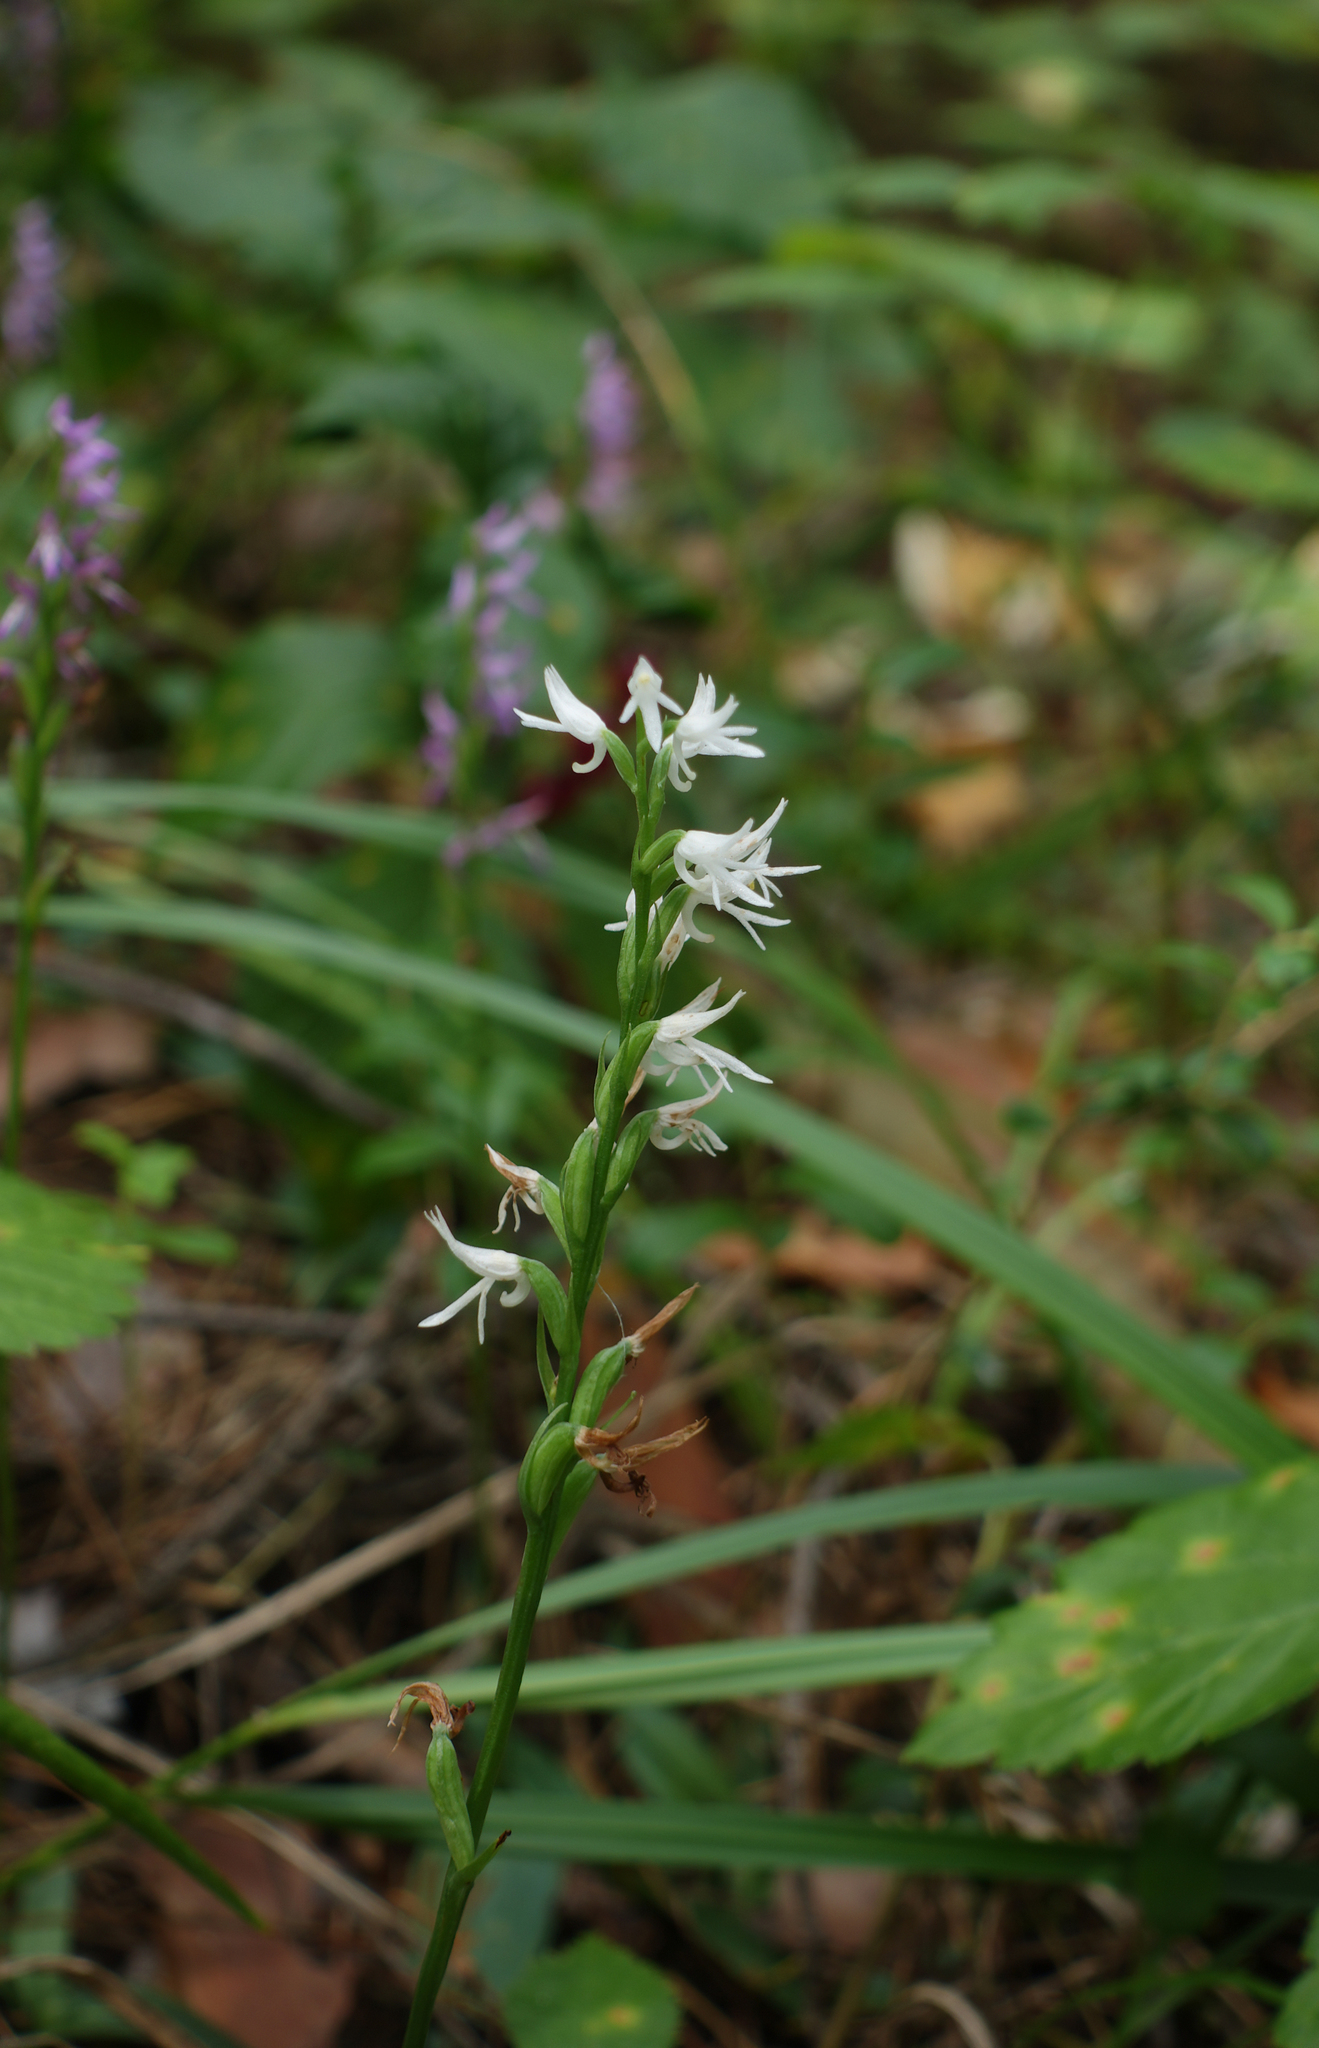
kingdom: Plantae
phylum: Tracheophyta
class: Liliopsida
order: Asparagales
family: Orchidaceae
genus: Hemipilia
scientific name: Hemipilia cucullata
